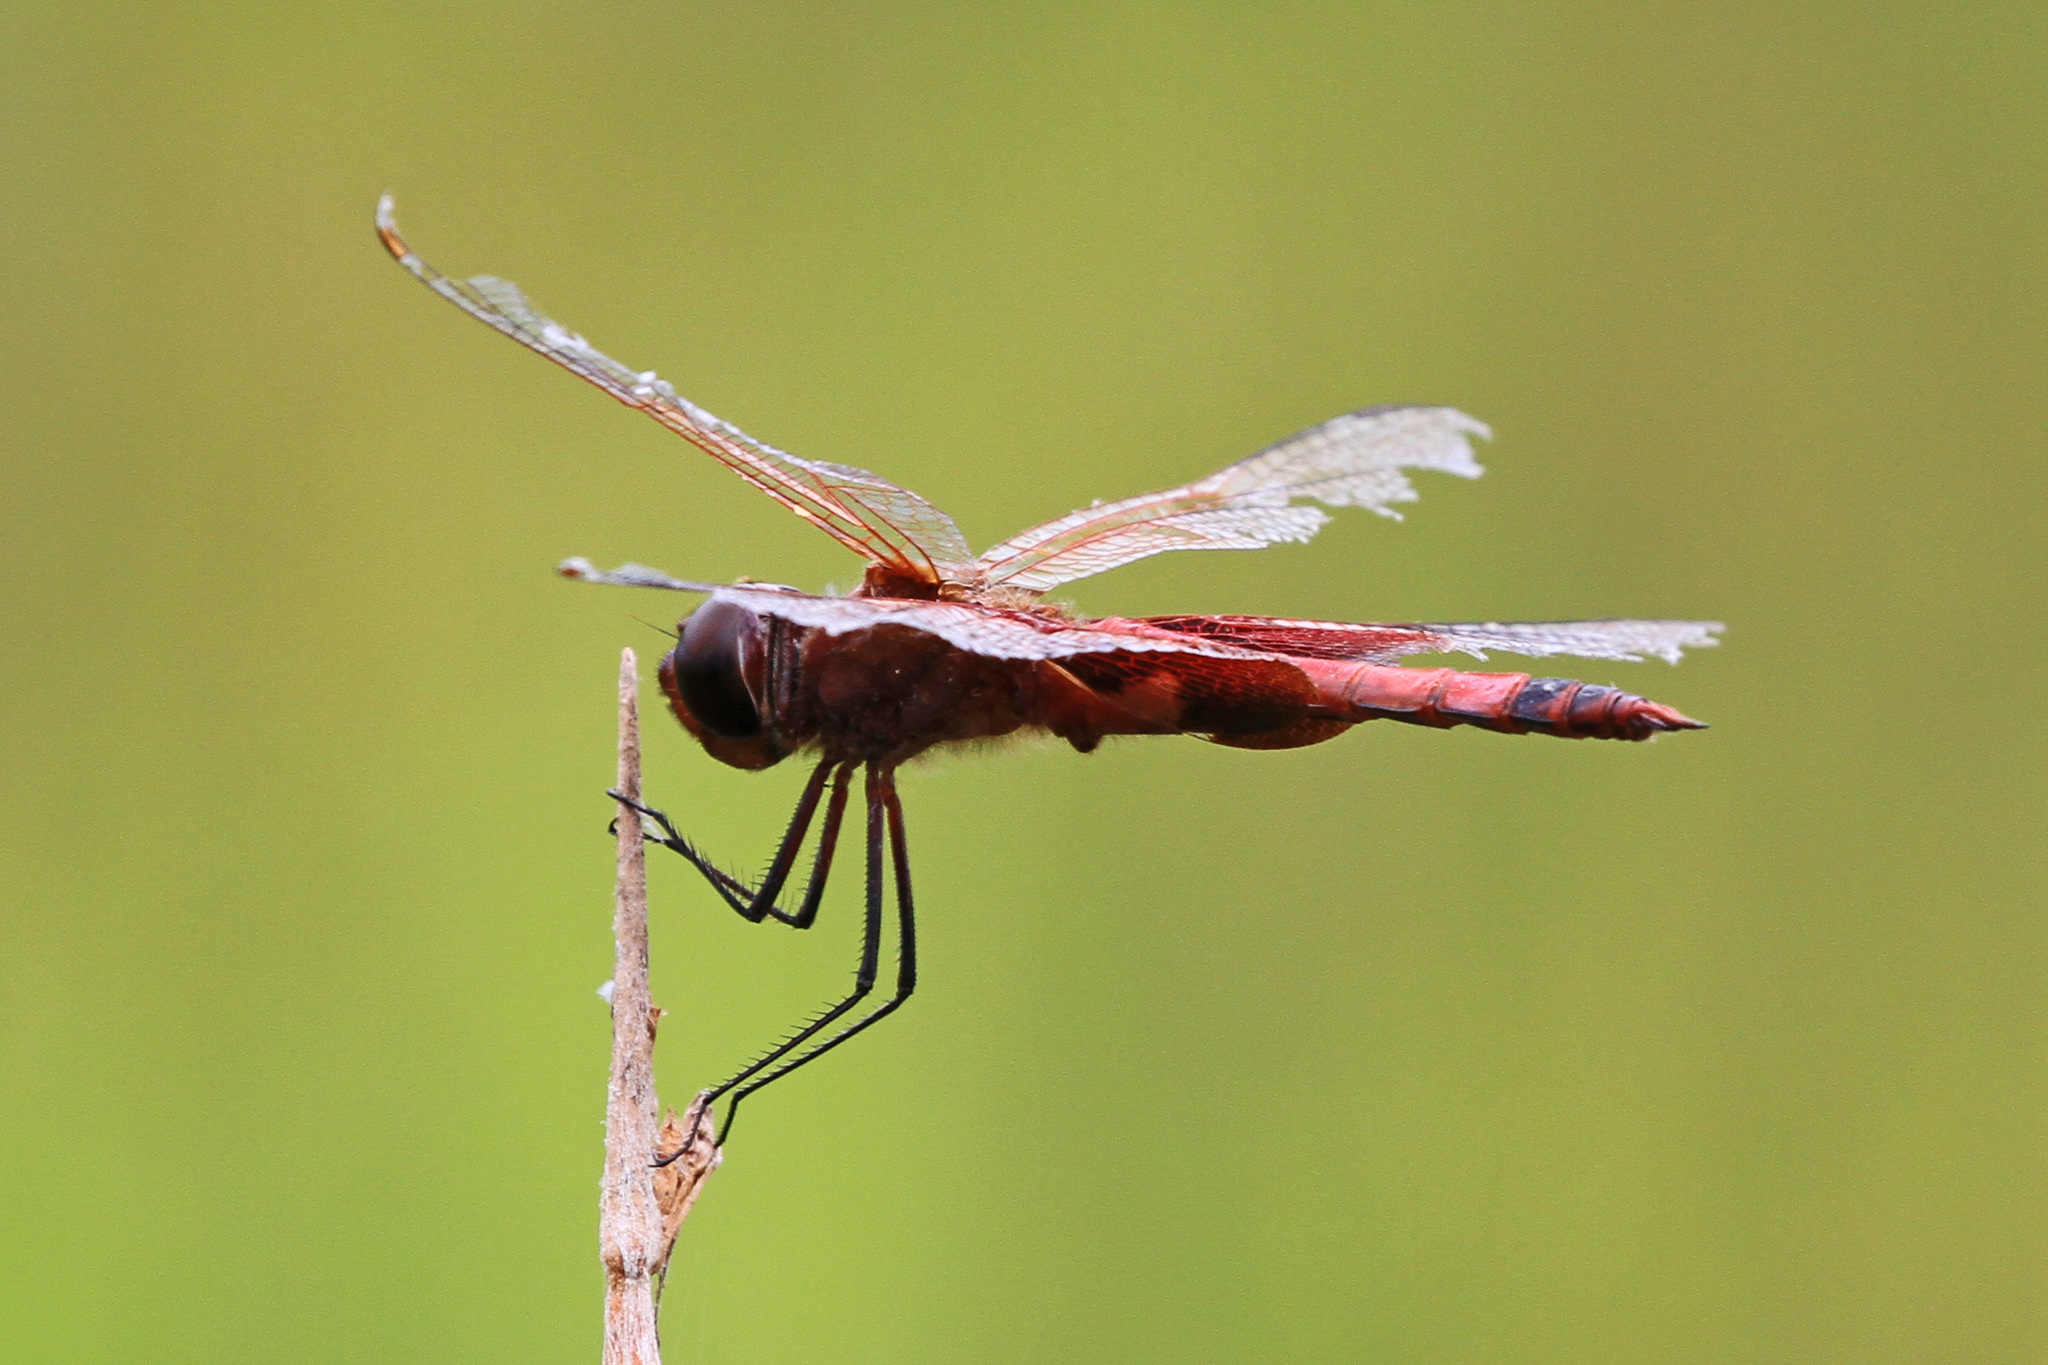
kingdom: Animalia
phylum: Arthropoda
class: Insecta
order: Odonata
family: Libellulidae
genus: Tramea
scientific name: Tramea carolina
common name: Carolina saddlebags
